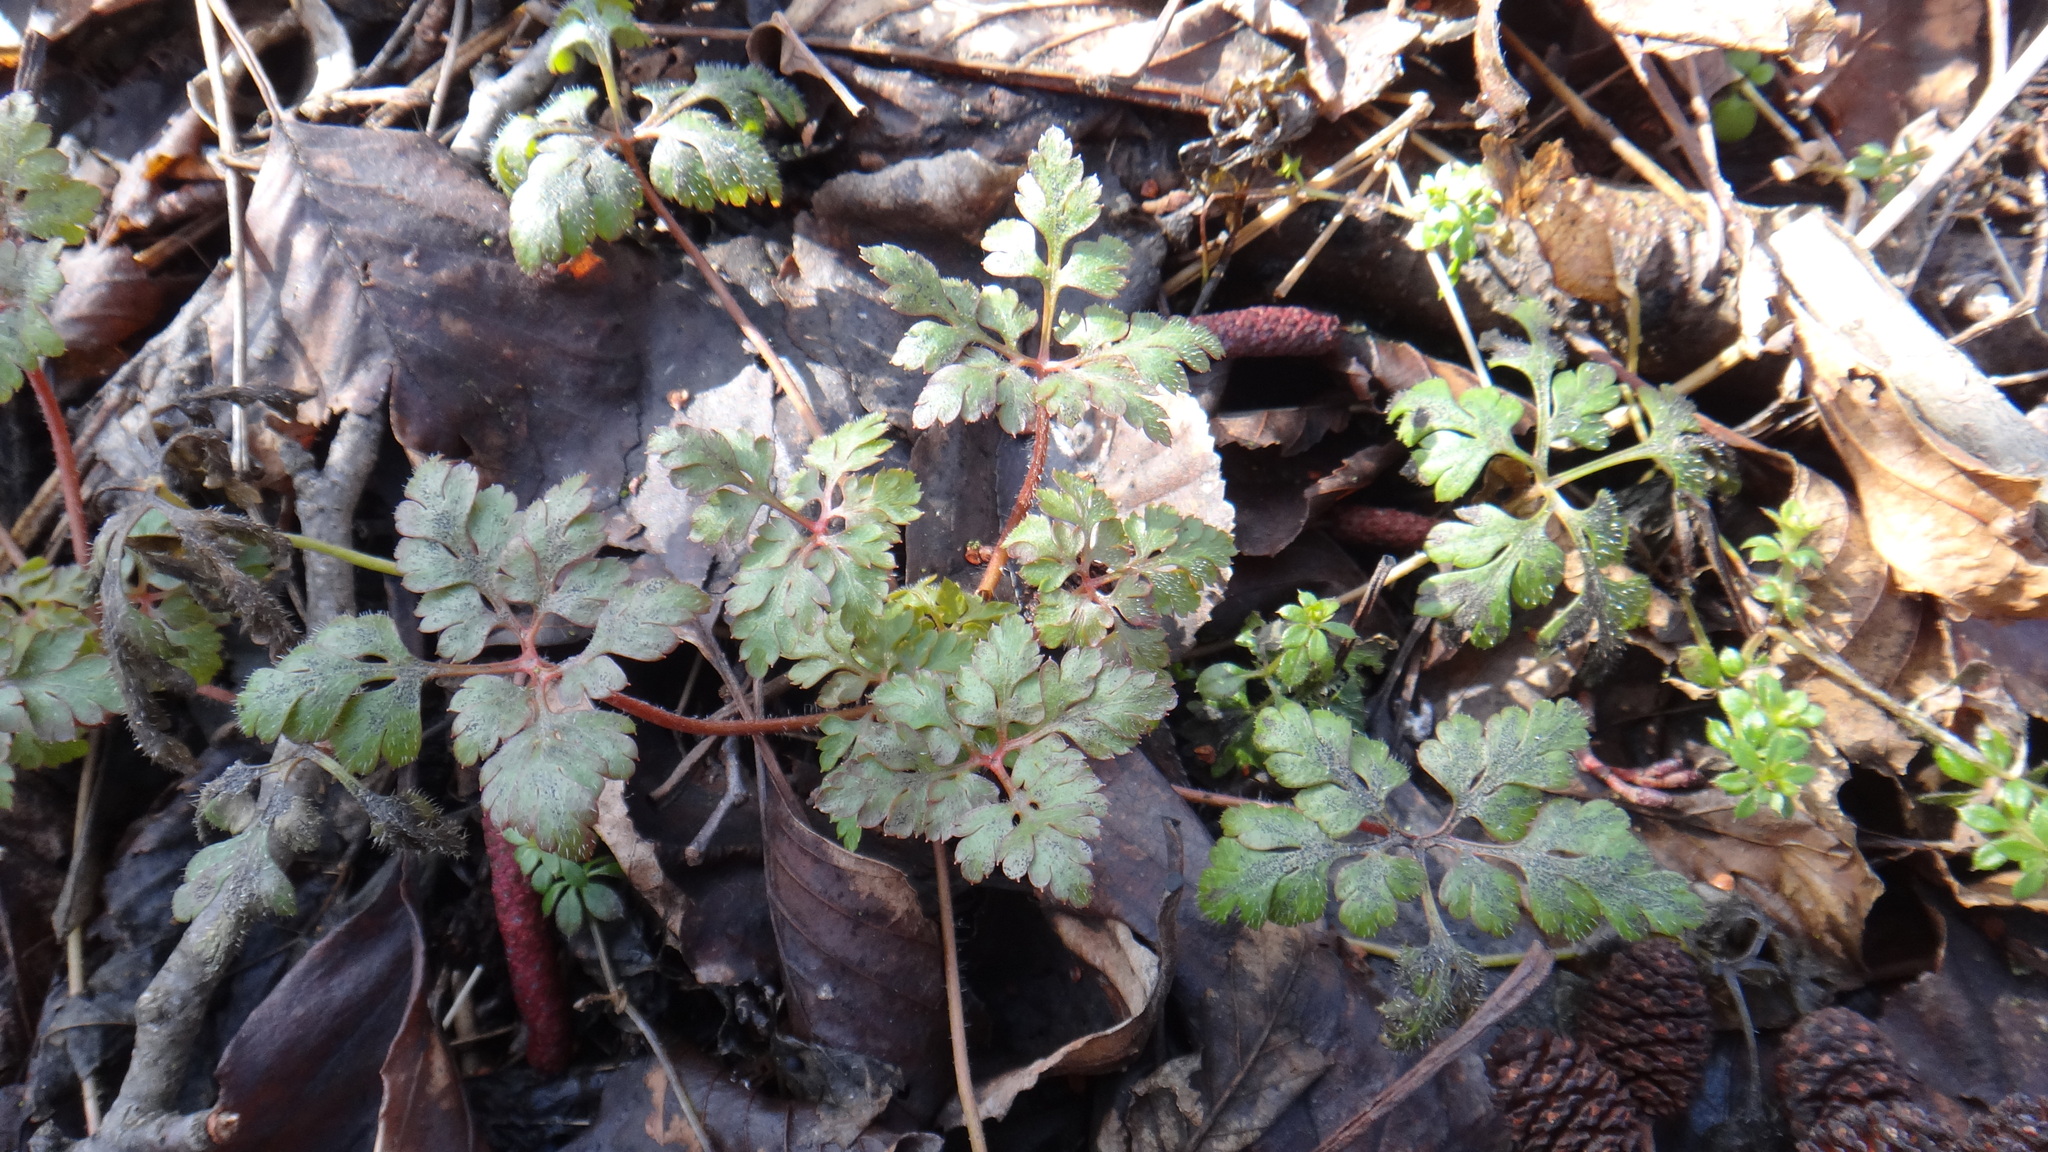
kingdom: Plantae
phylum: Tracheophyta
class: Magnoliopsida
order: Geraniales
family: Geraniaceae
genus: Geranium
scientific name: Geranium robertianum
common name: Herb-robert
